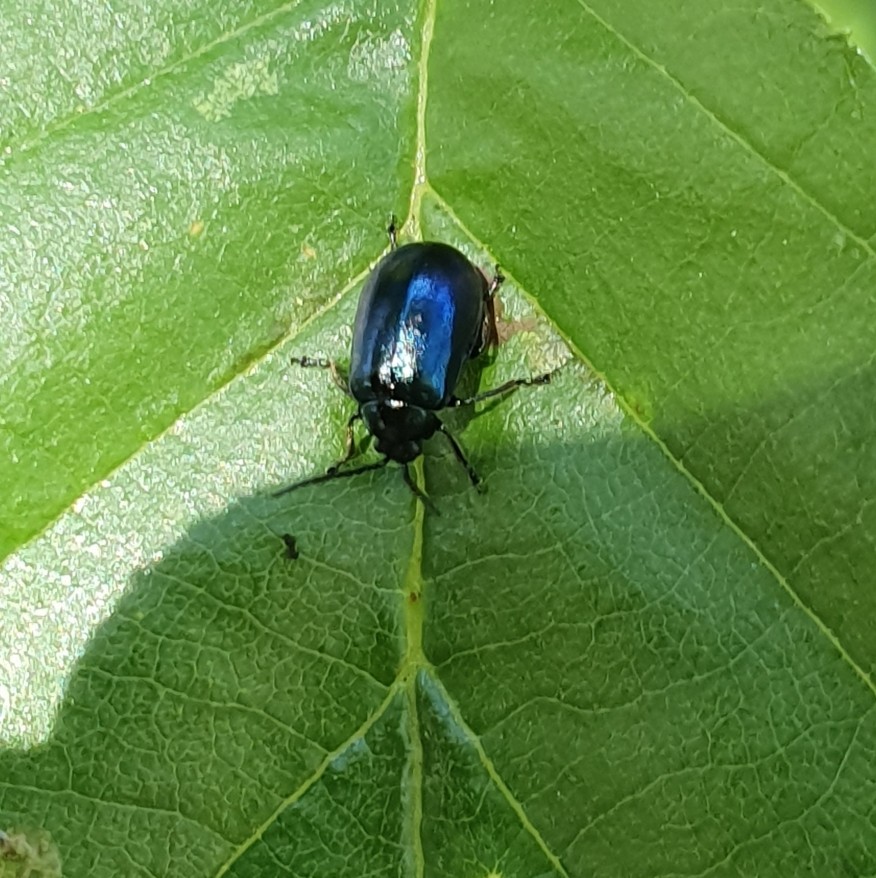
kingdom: Animalia
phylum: Arthropoda
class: Insecta
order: Coleoptera
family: Chrysomelidae
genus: Agelastica
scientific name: Agelastica alni
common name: Alder leaf beetle
